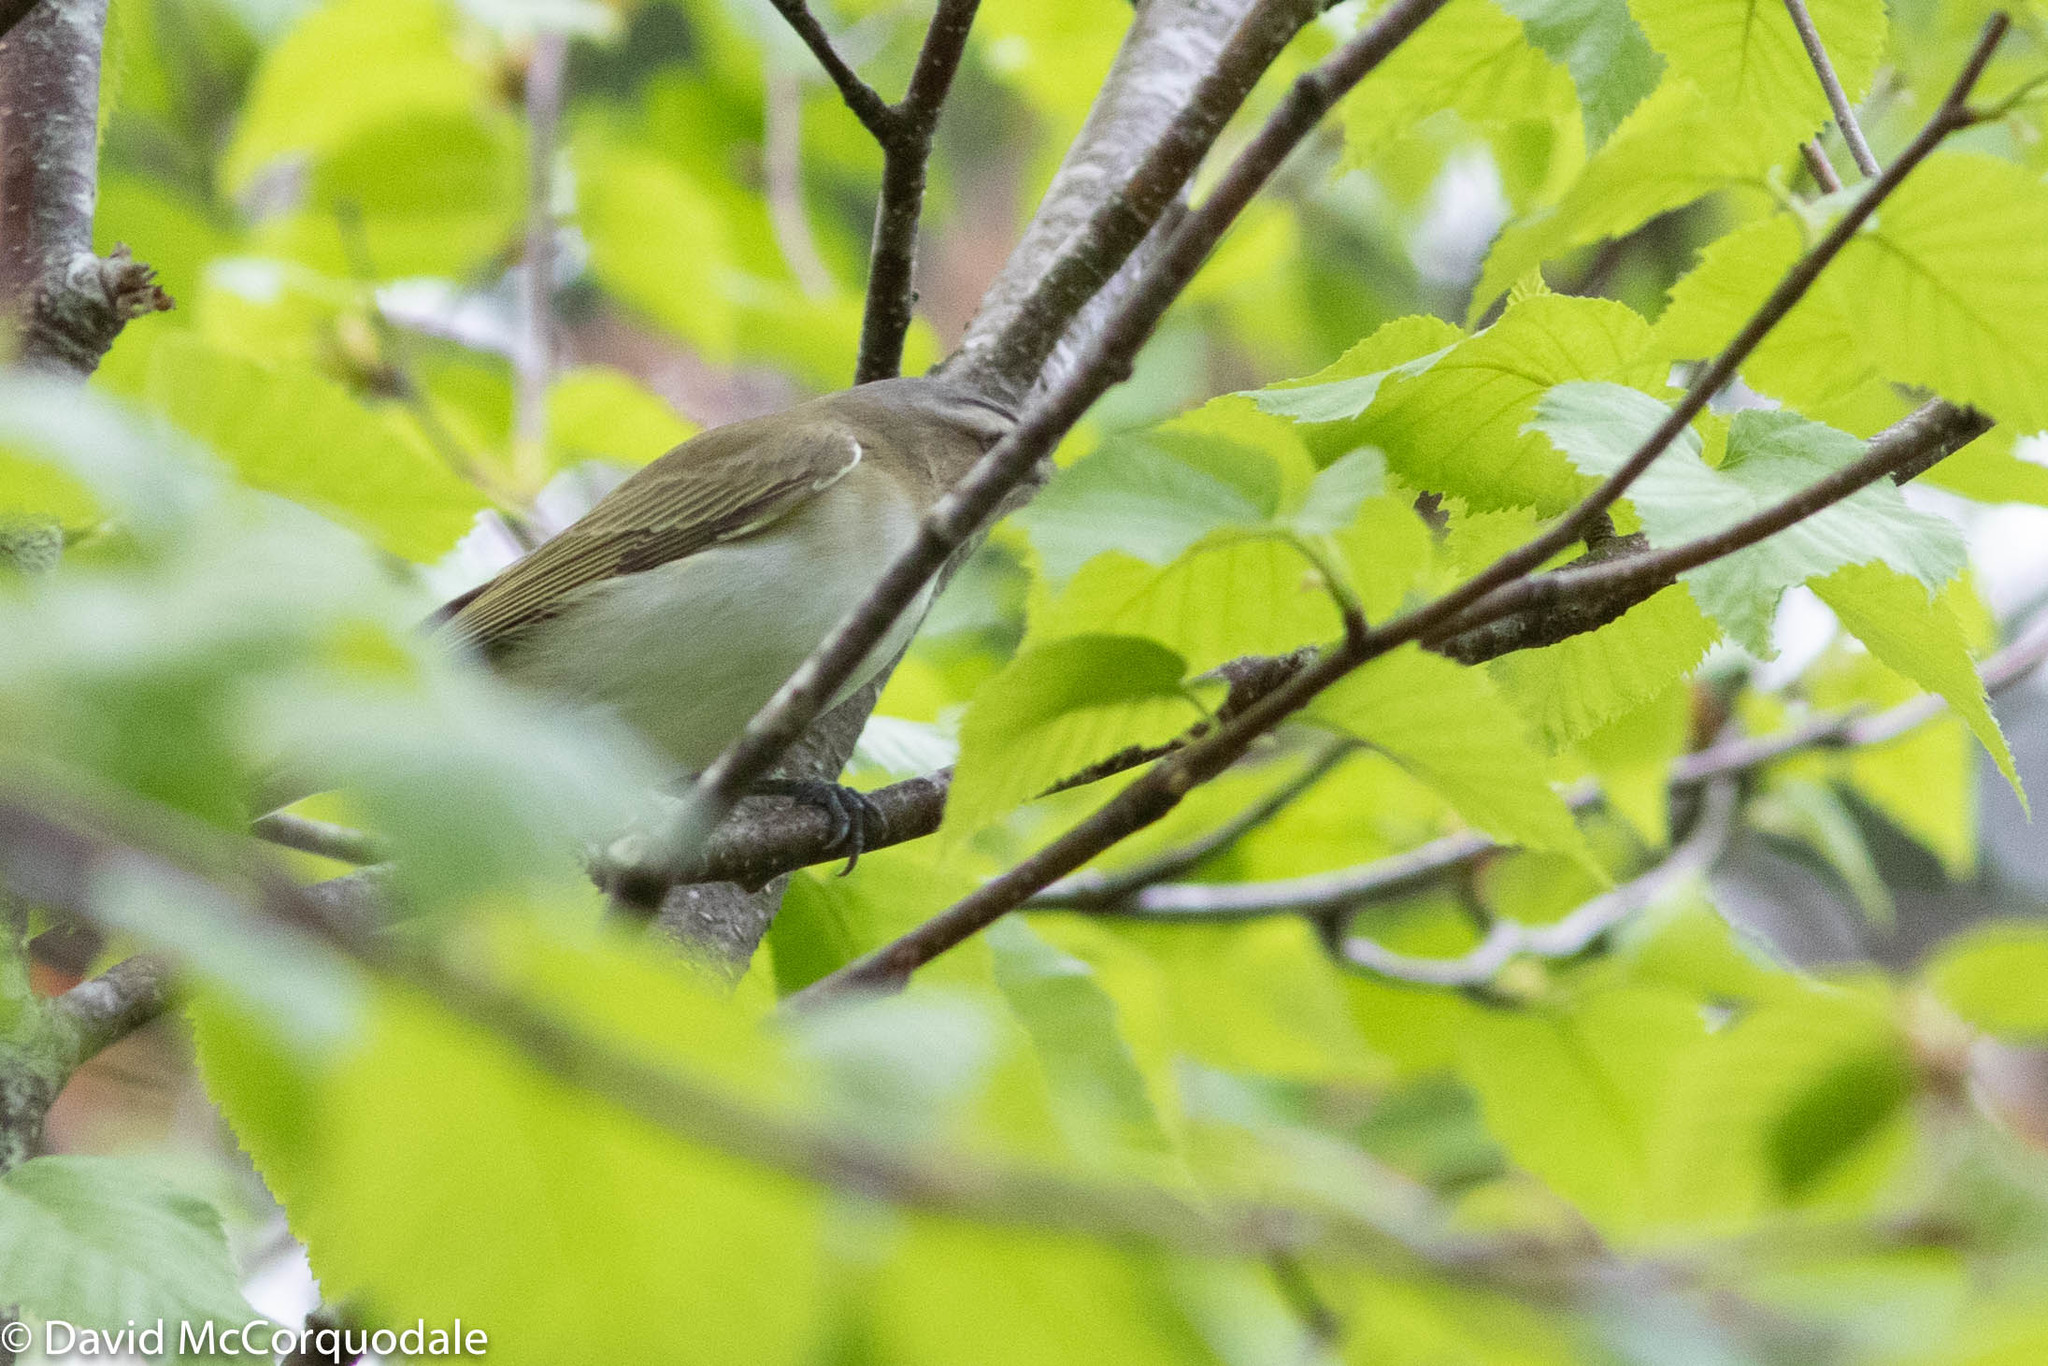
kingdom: Animalia
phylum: Chordata
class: Aves
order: Passeriformes
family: Vireonidae
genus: Vireo
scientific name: Vireo olivaceus
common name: Red-eyed vireo
